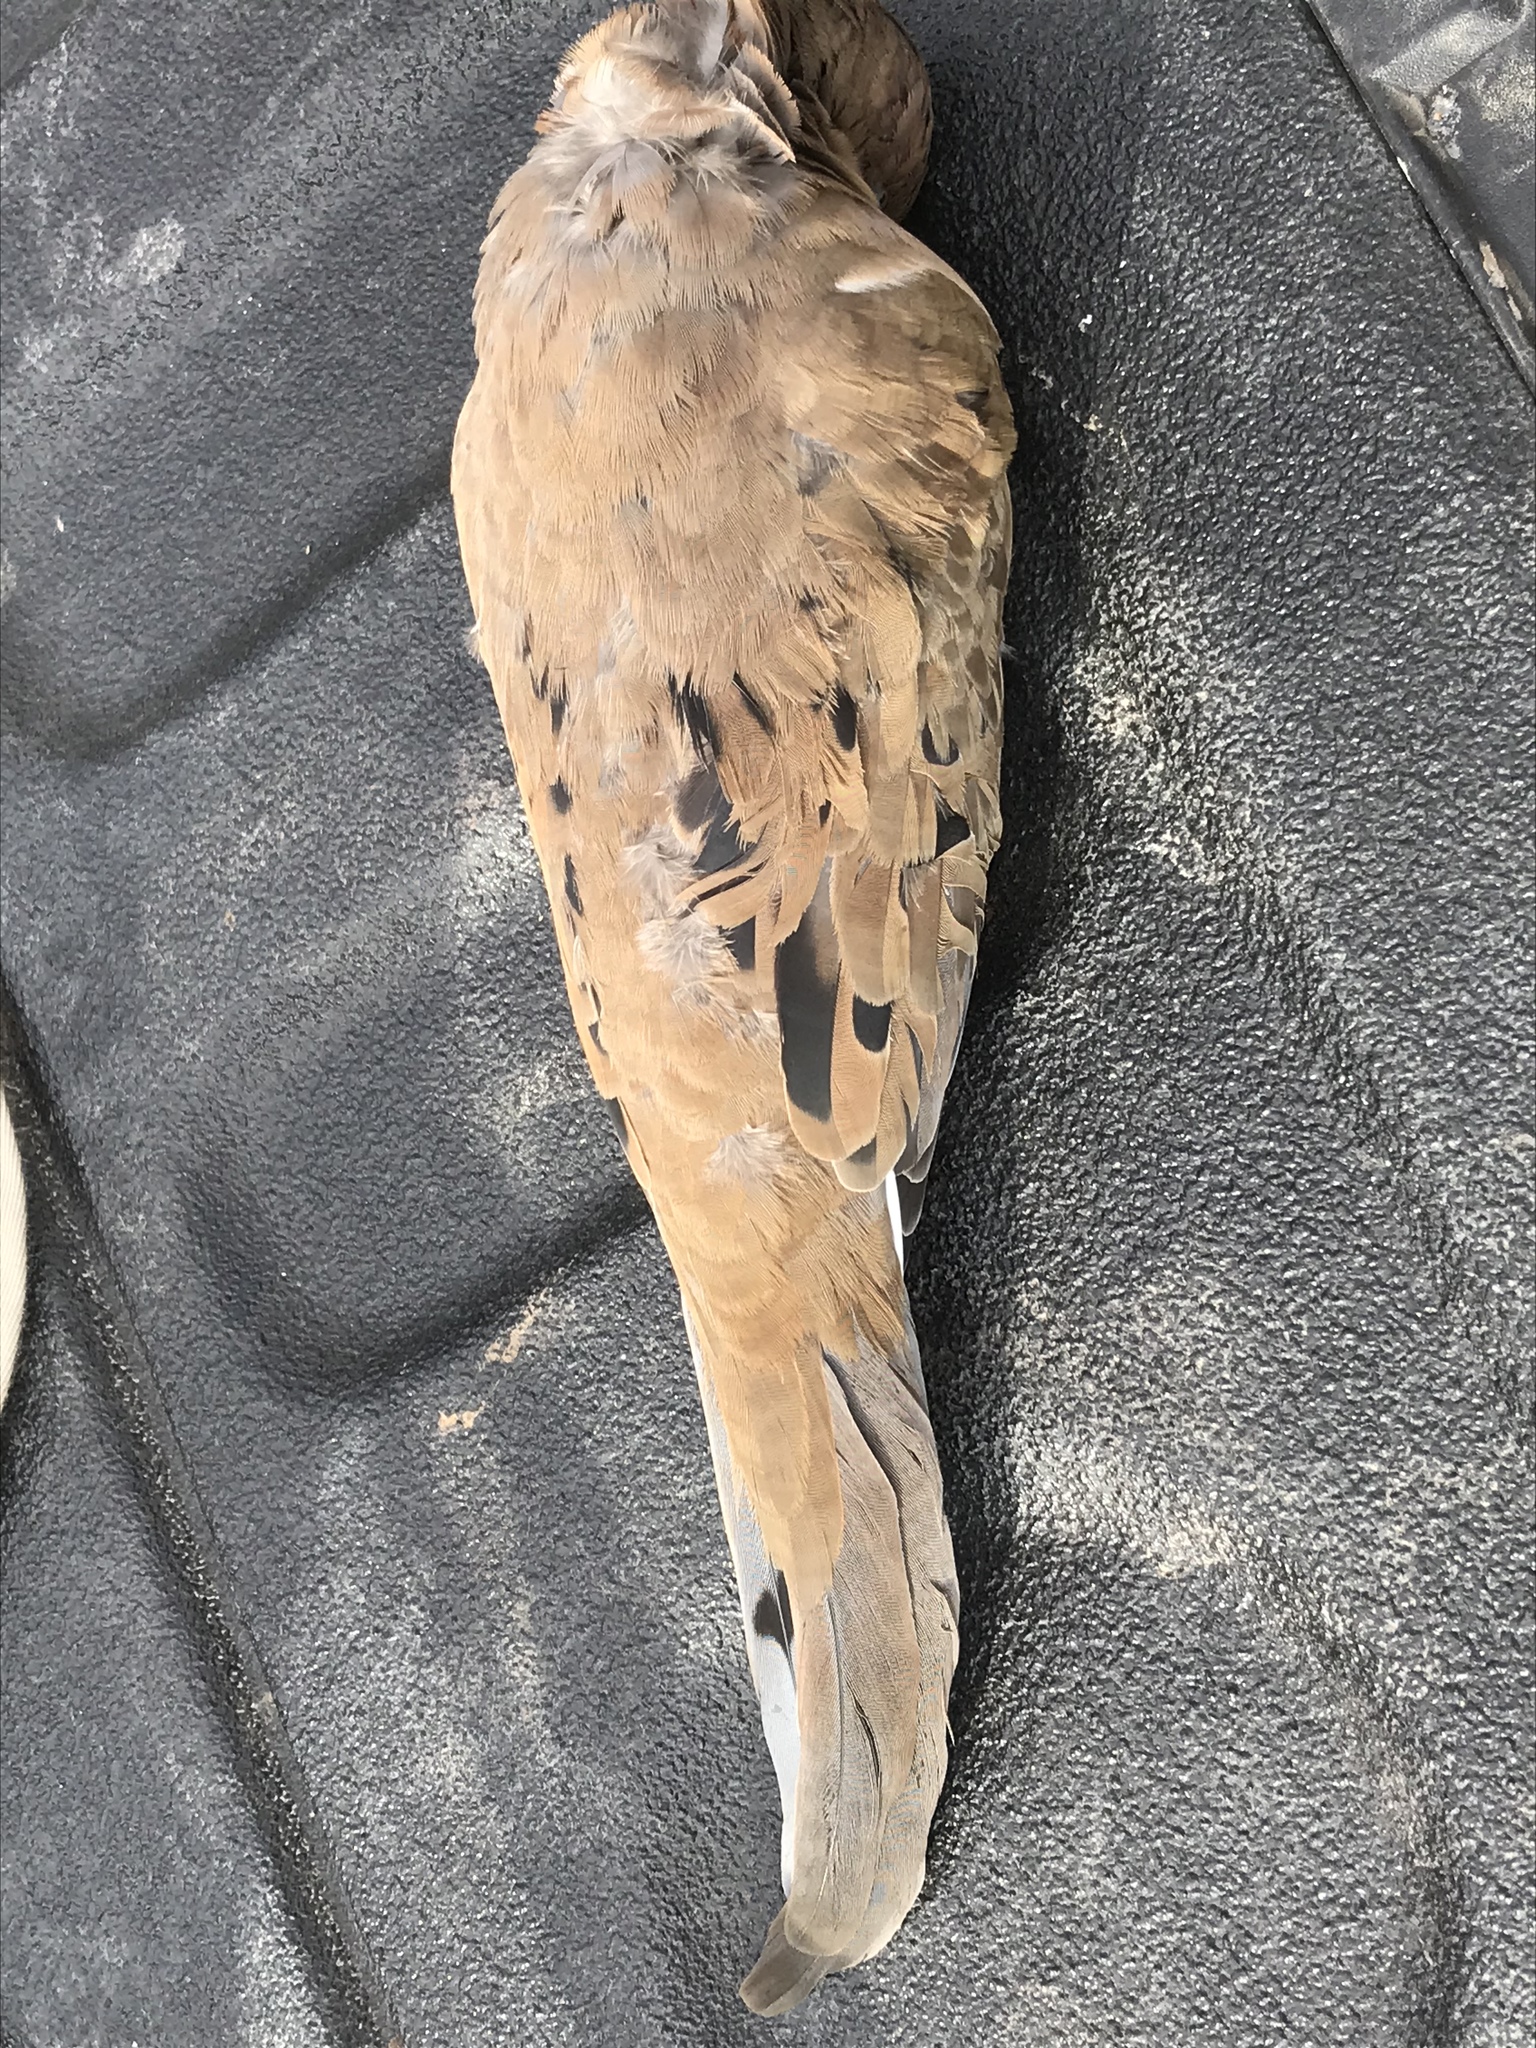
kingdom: Animalia
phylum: Chordata
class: Aves
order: Columbiformes
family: Columbidae
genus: Zenaida
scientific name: Zenaida macroura
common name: Mourning dove
